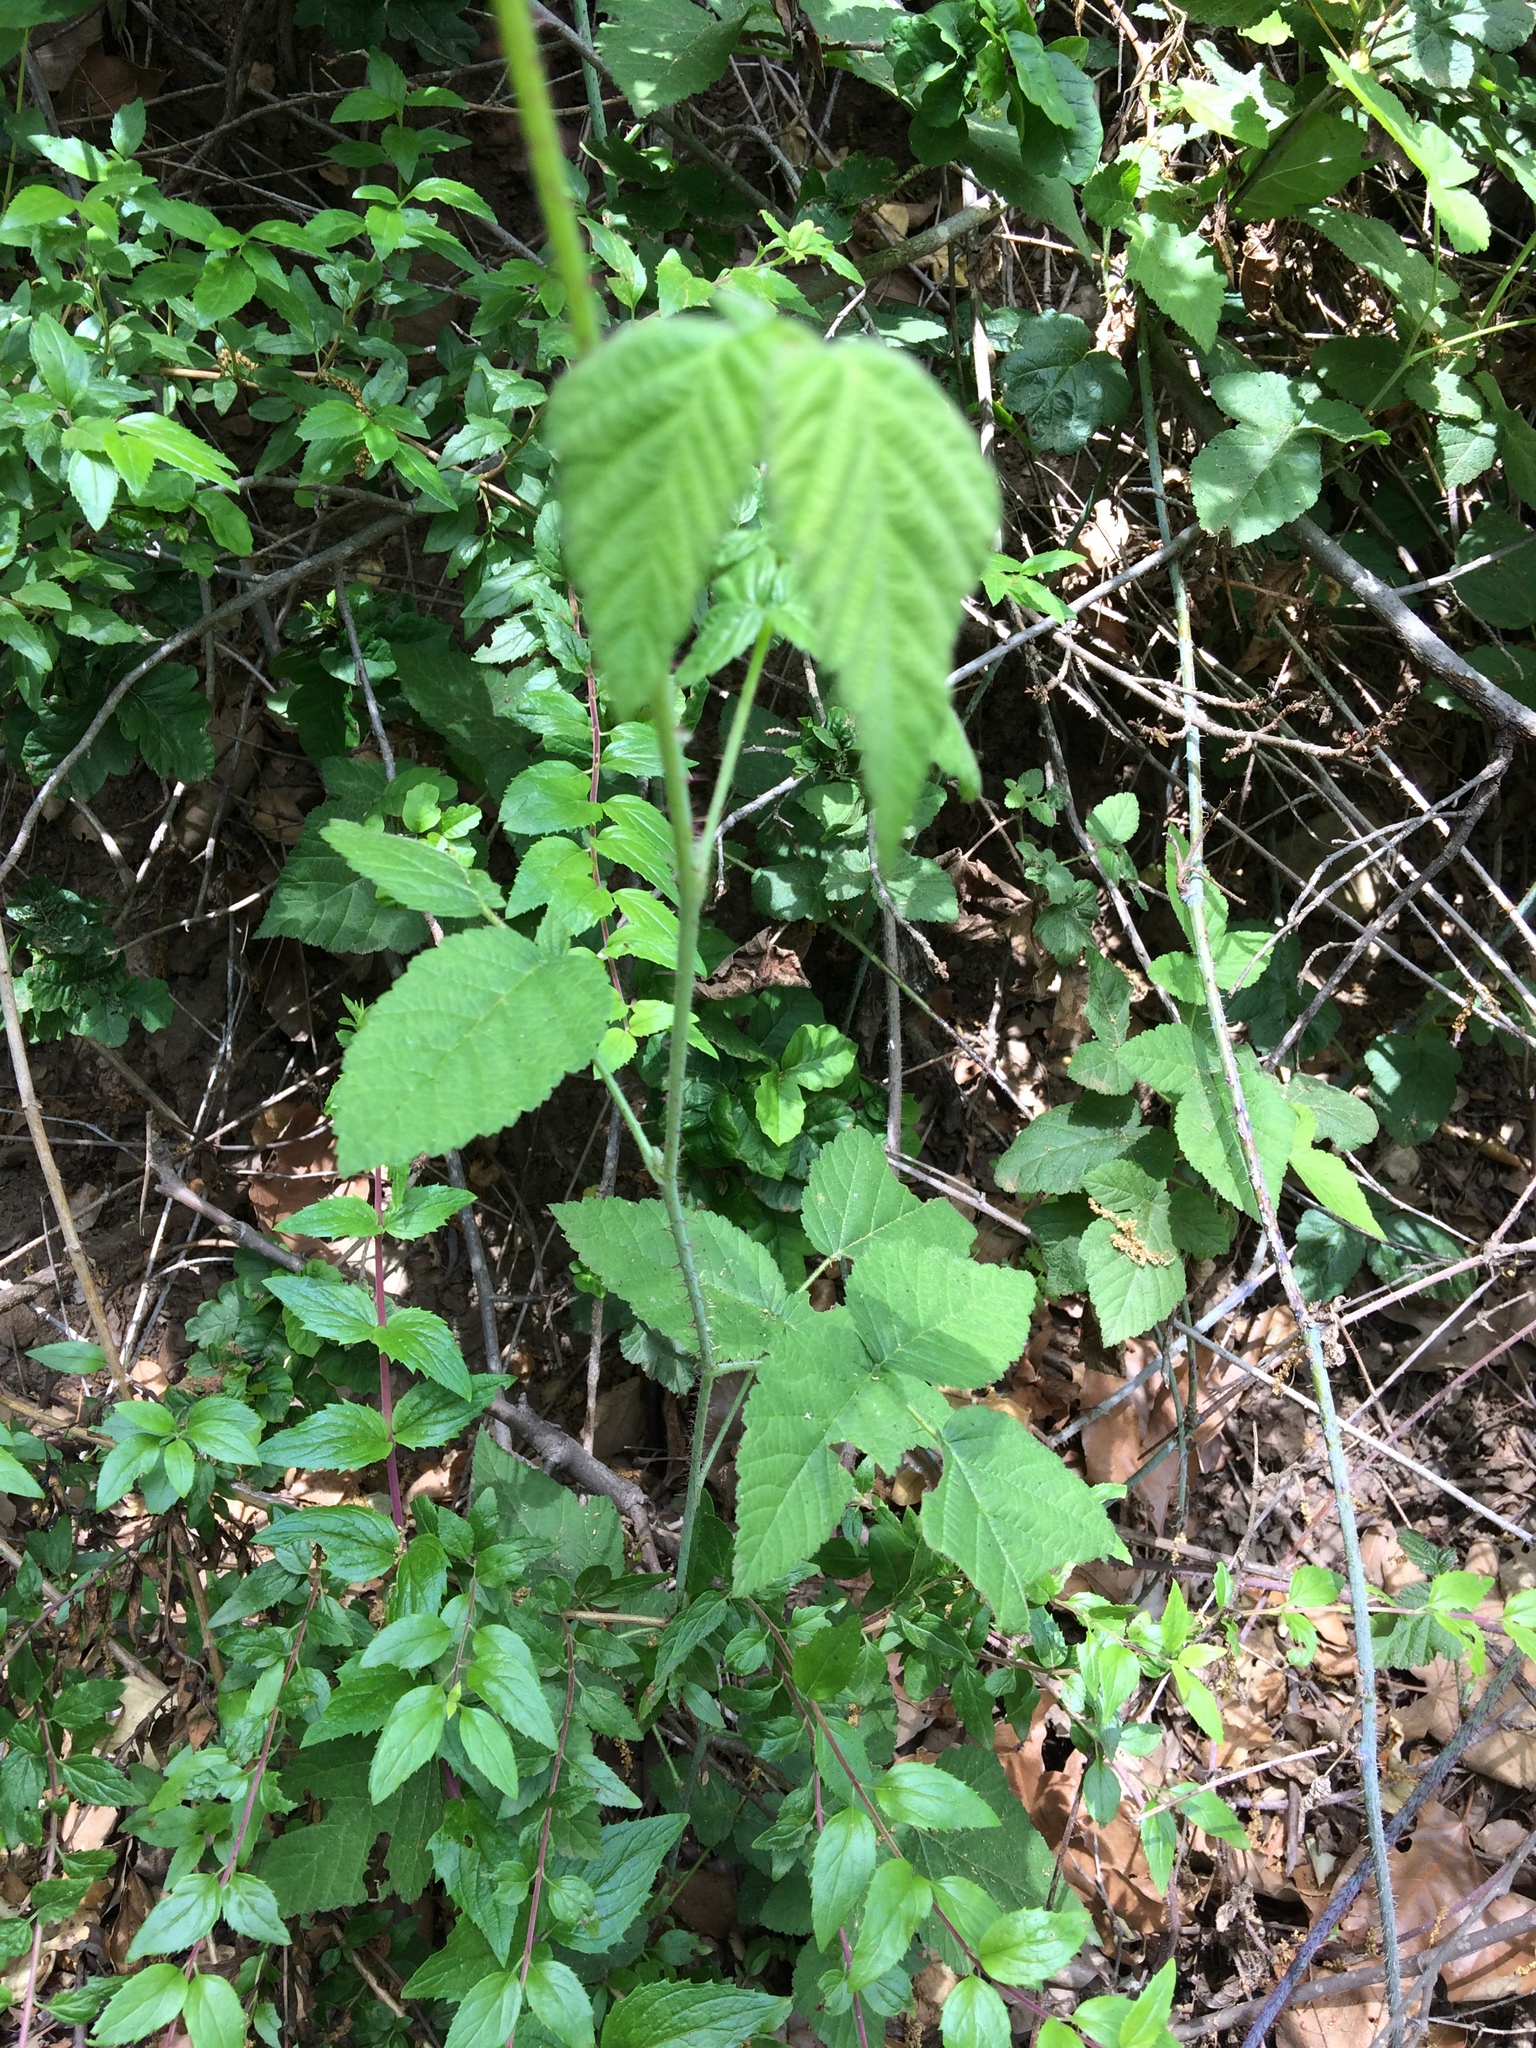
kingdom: Plantae
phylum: Tracheophyta
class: Magnoliopsida
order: Rosales
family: Rosaceae
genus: Rubus
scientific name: Rubus ursinus
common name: Pacific blackberry
